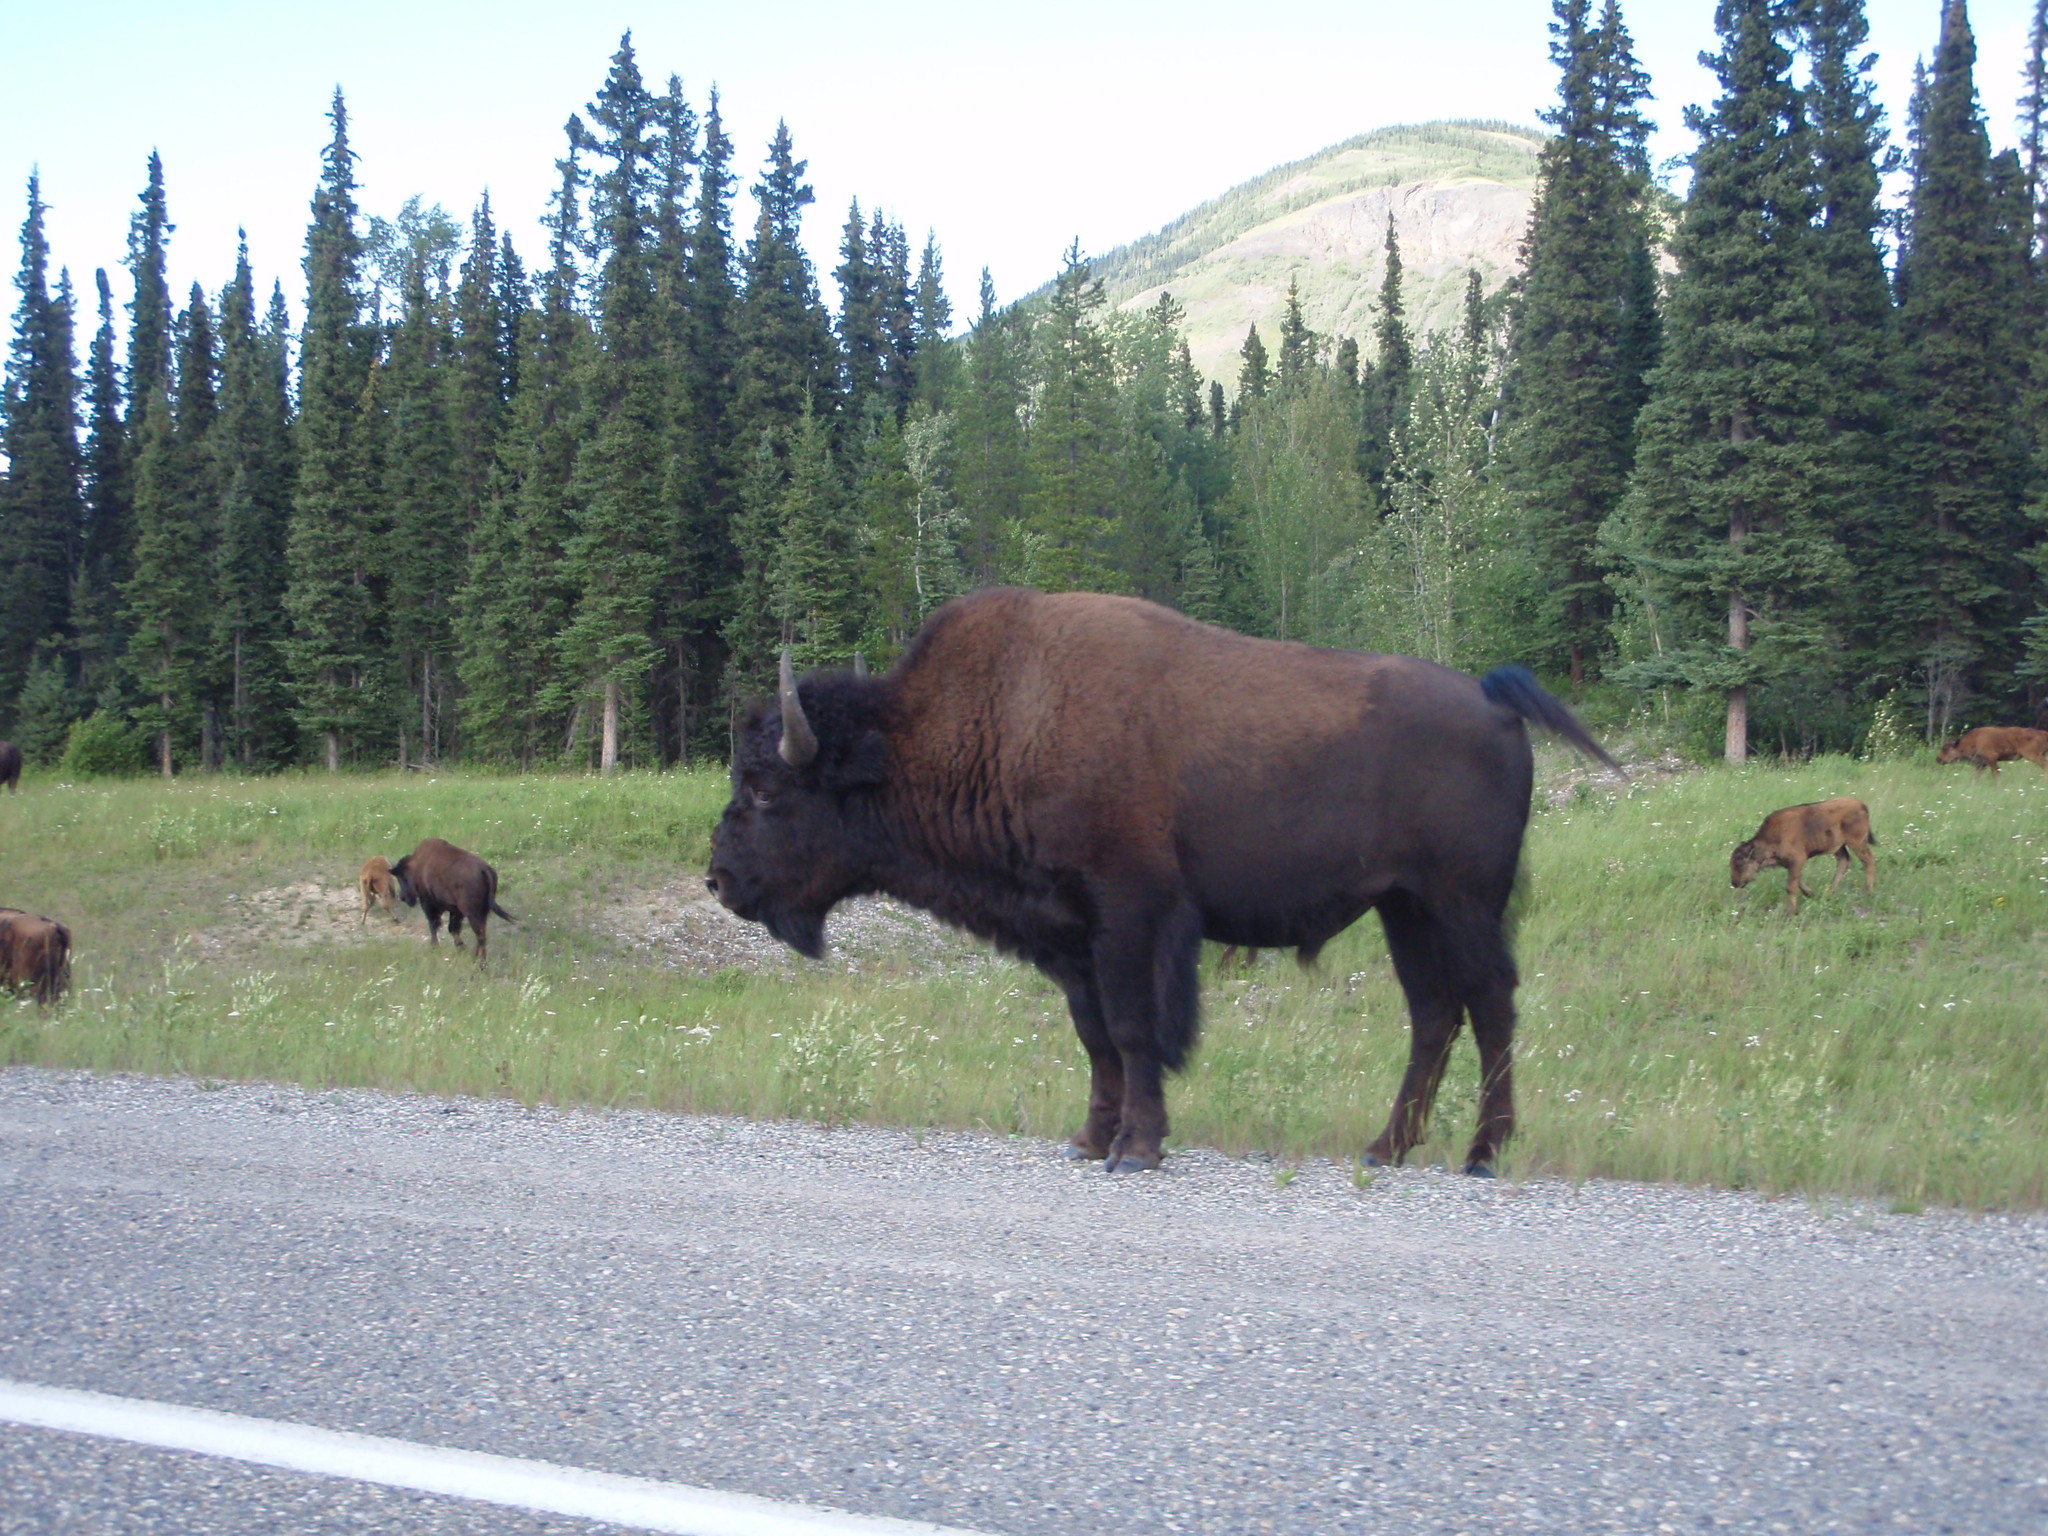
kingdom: Animalia
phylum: Chordata
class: Mammalia
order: Artiodactyla
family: Bovidae
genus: Bison
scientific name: Bison bison
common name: American bison
